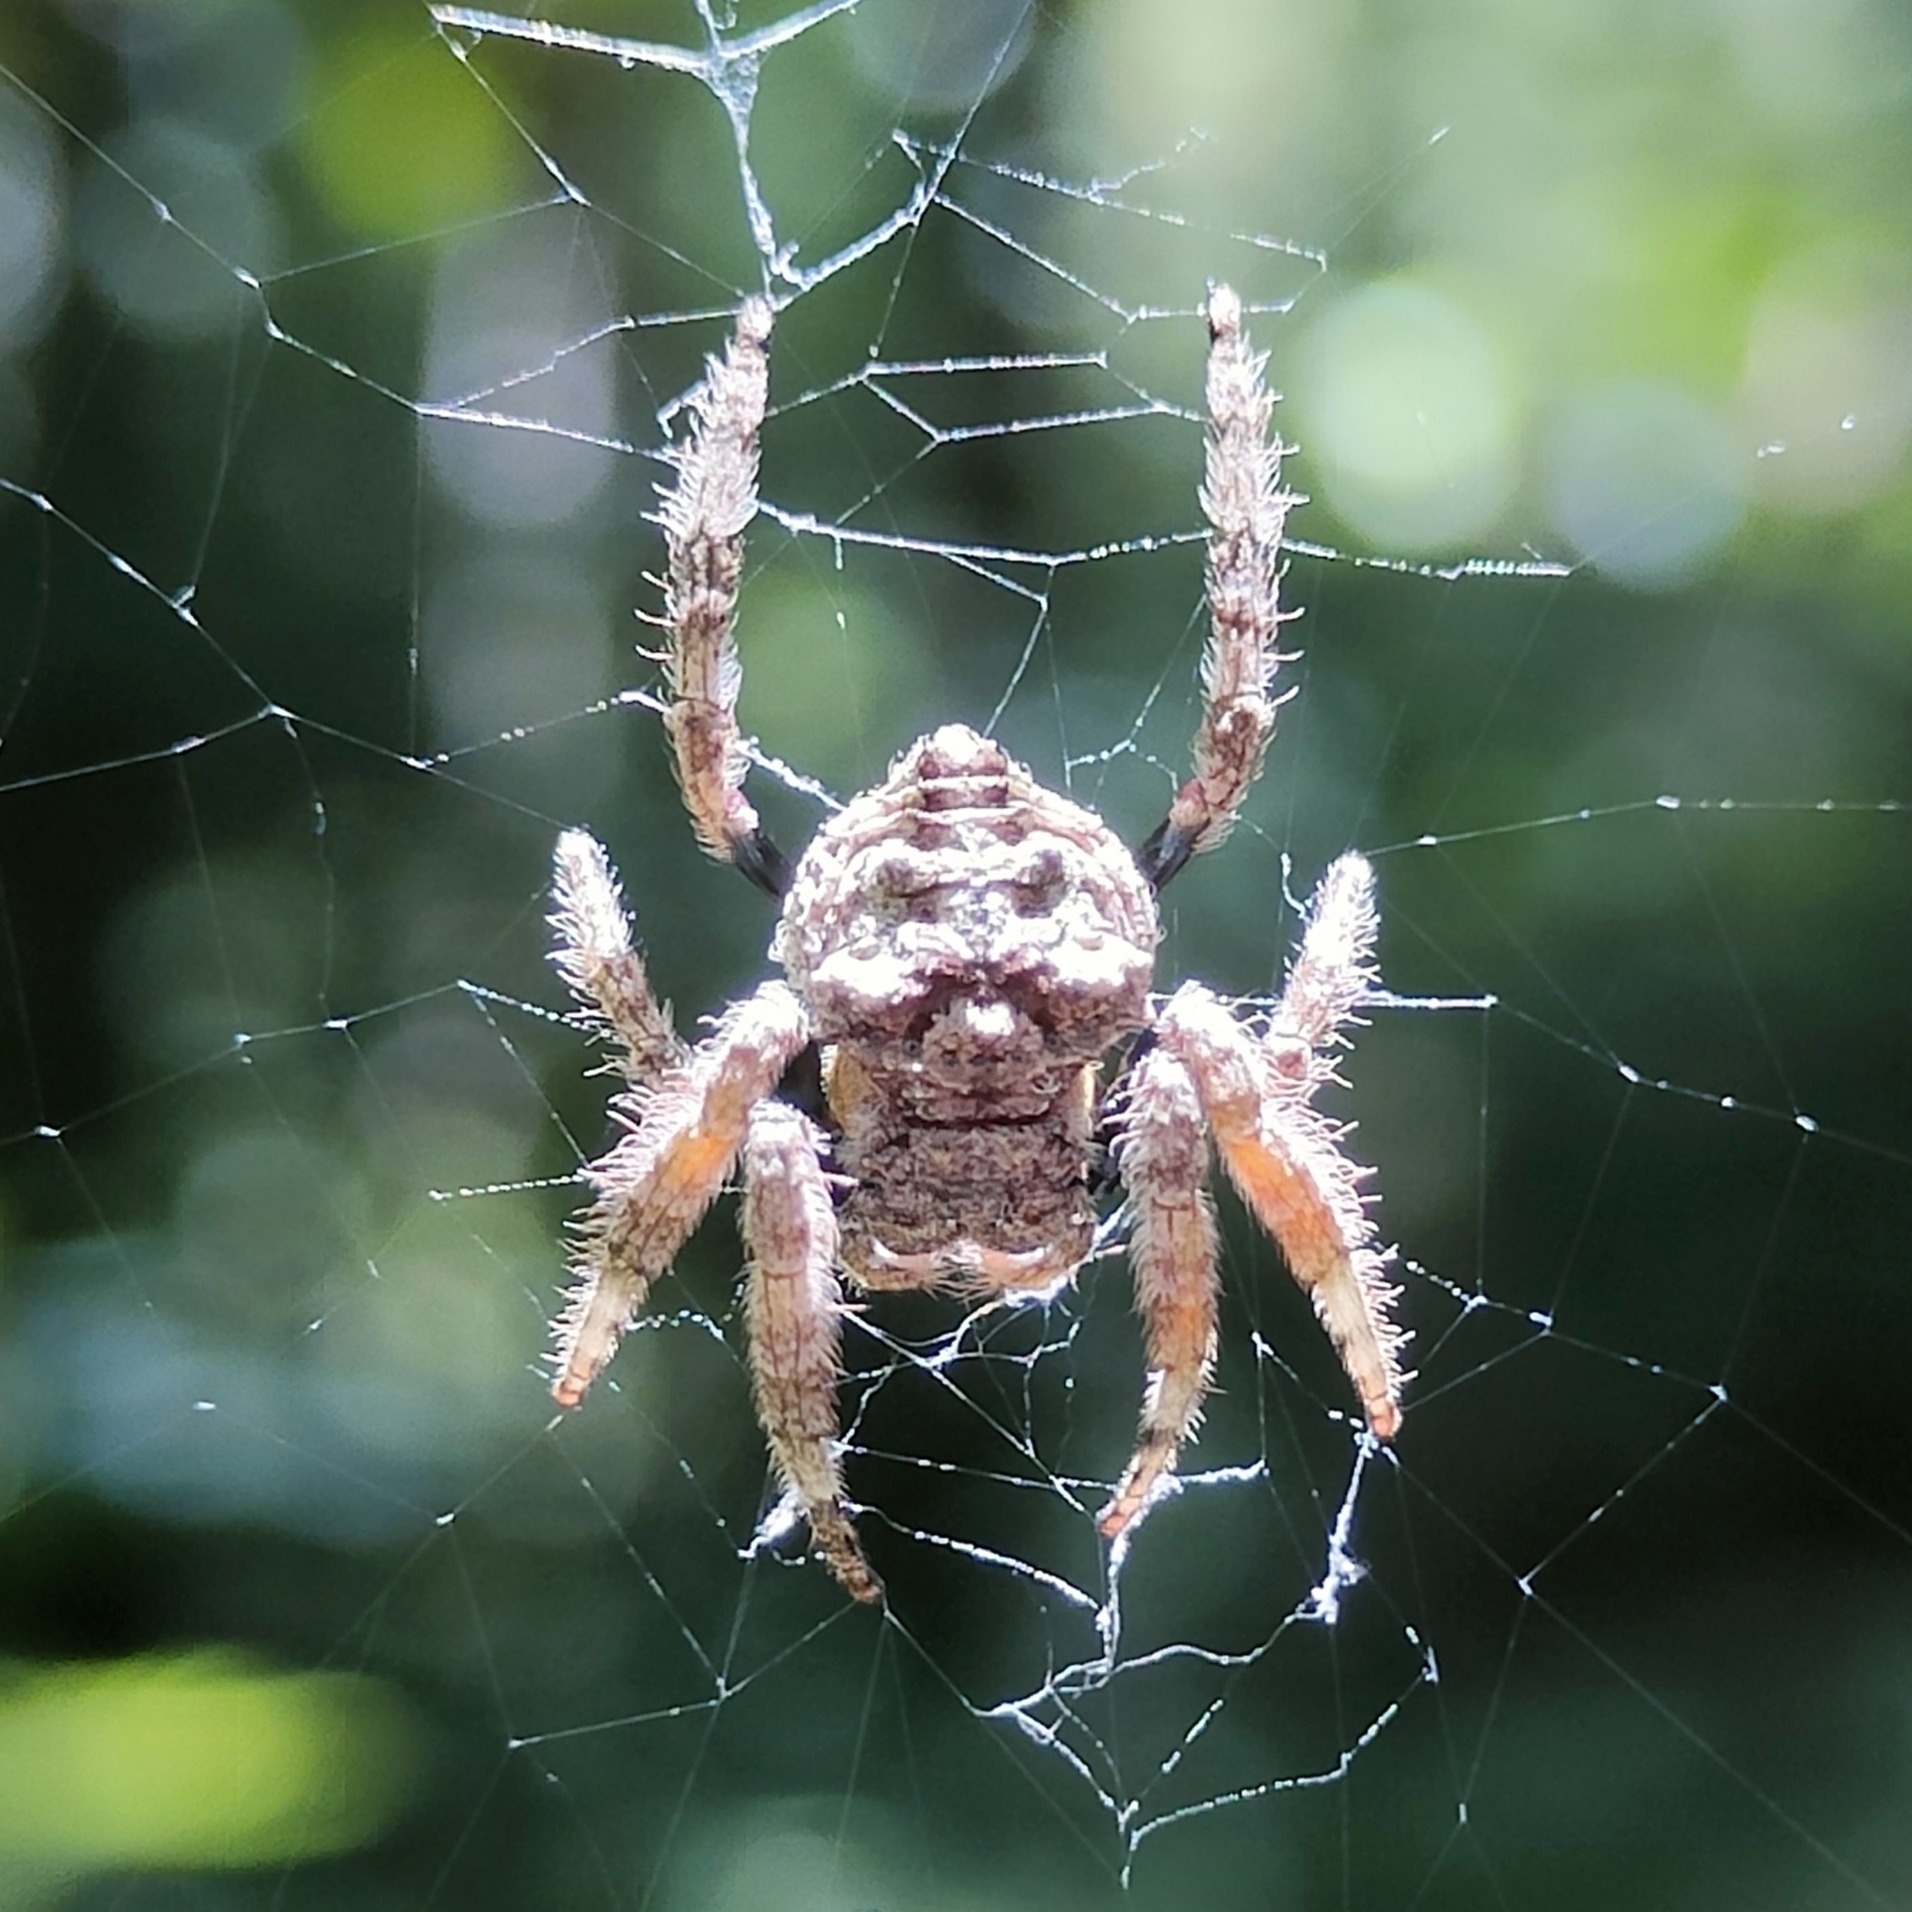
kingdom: Animalia
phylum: Arthropoda
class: Arachnida
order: Araneae
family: Araneidae
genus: Caerostris
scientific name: Caerostris sexcuspidata
